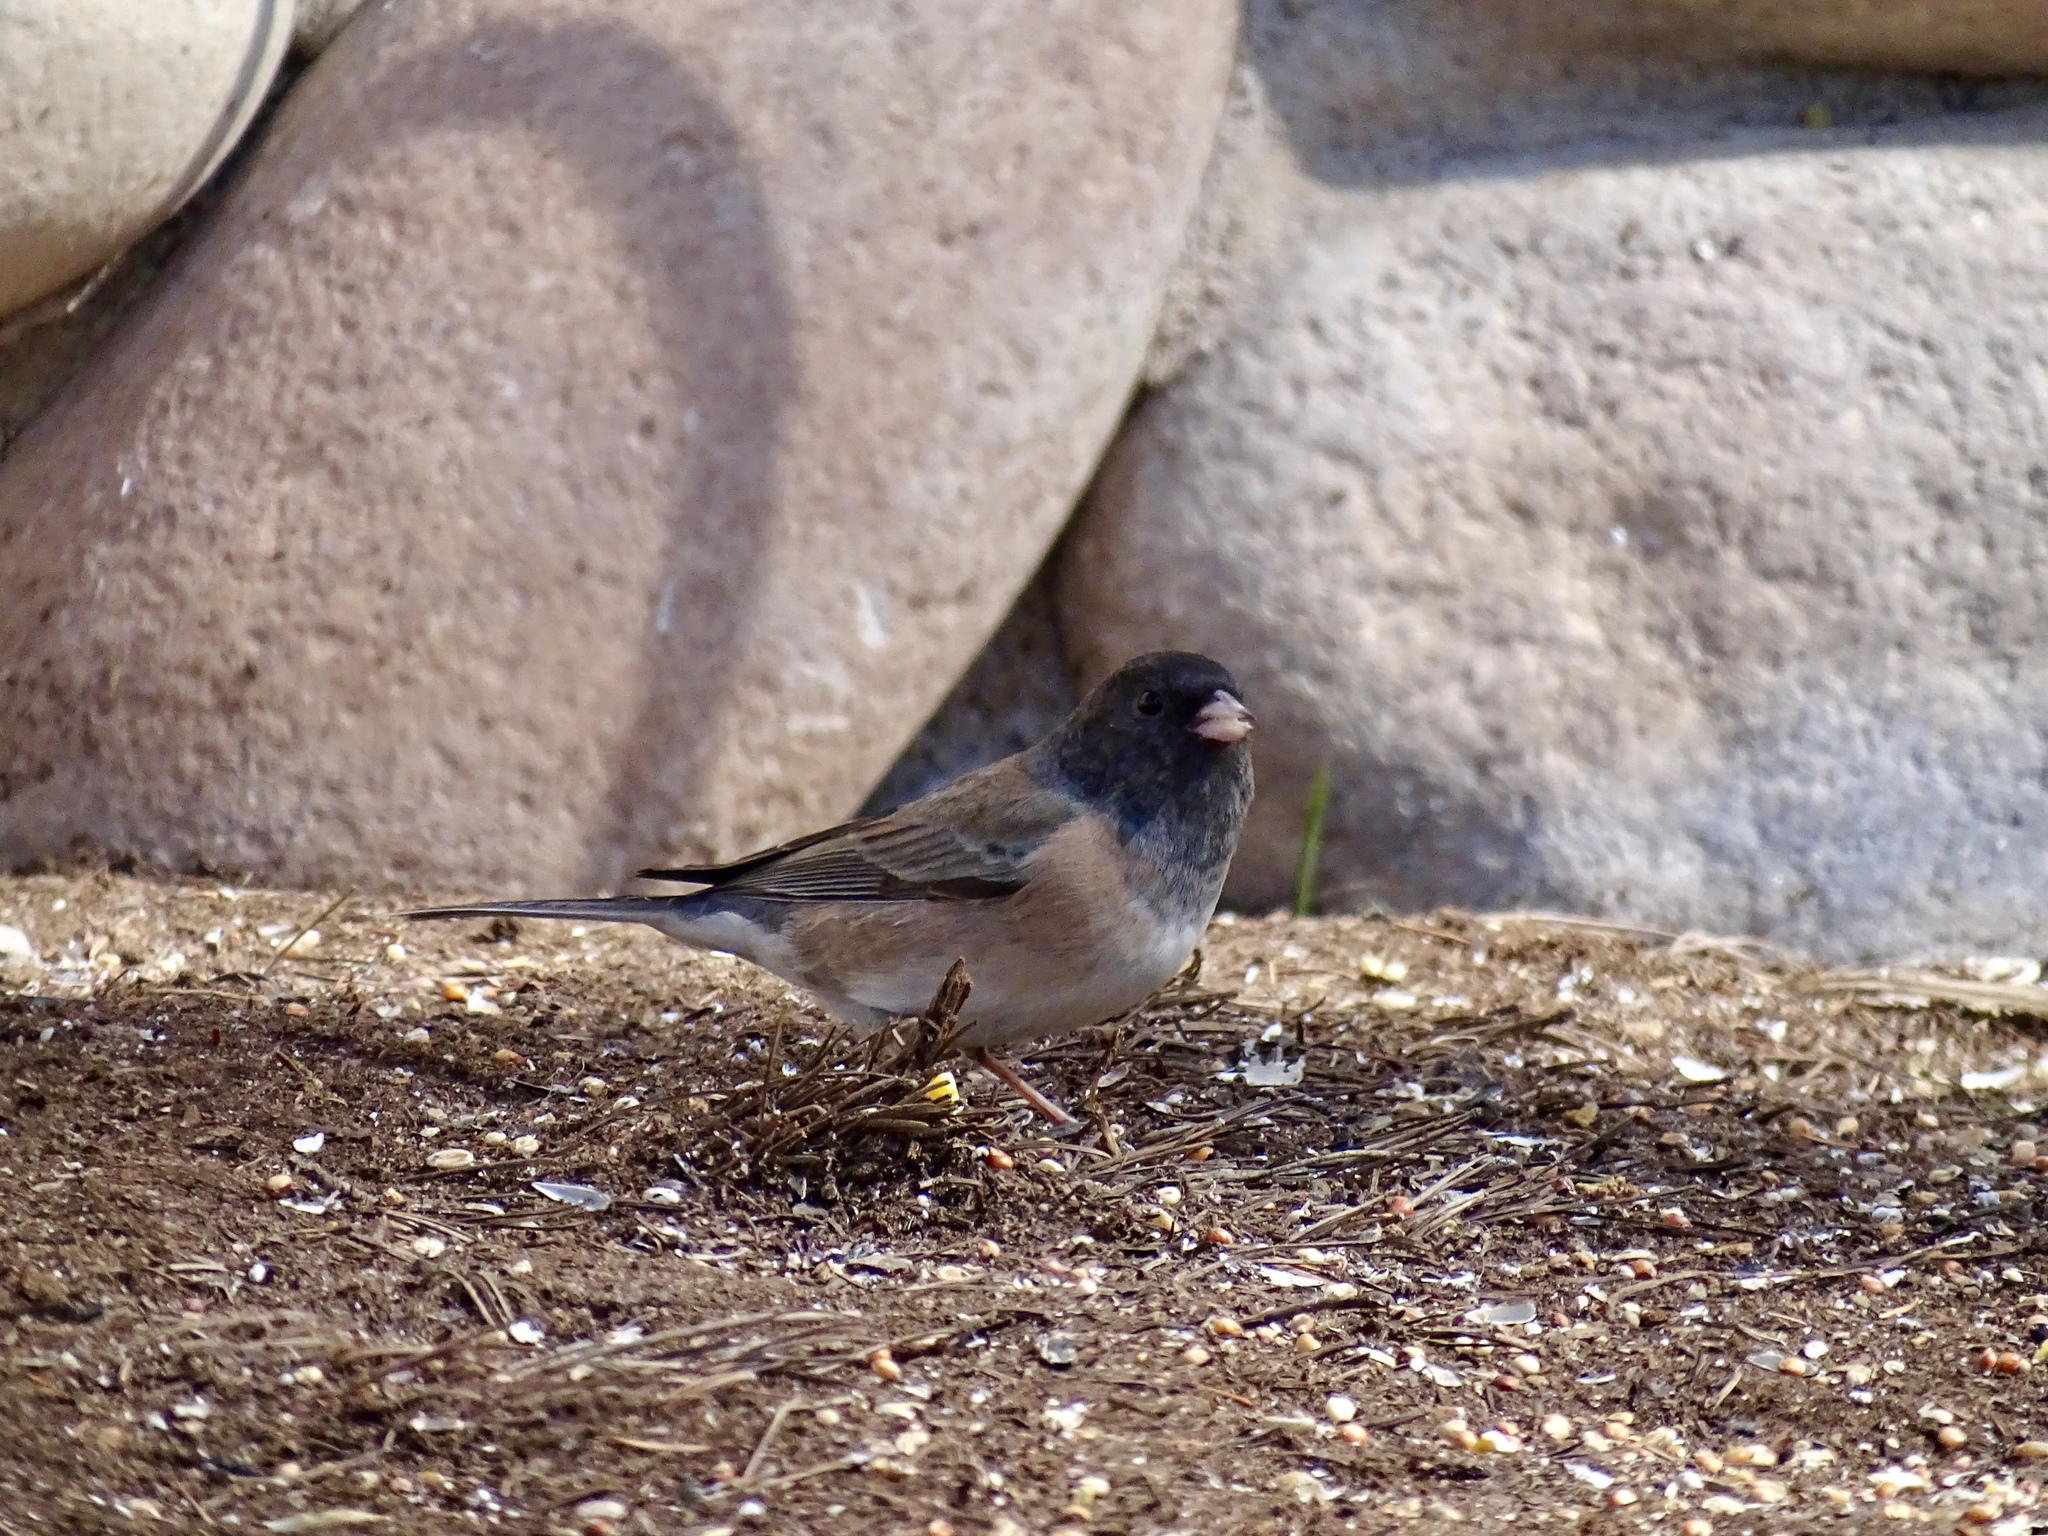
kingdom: Animalia
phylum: Chordata
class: Aves
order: Passeriformes
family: Passerellidae
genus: Junco
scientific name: Junco hyemalis
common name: Dark-eyed junco
